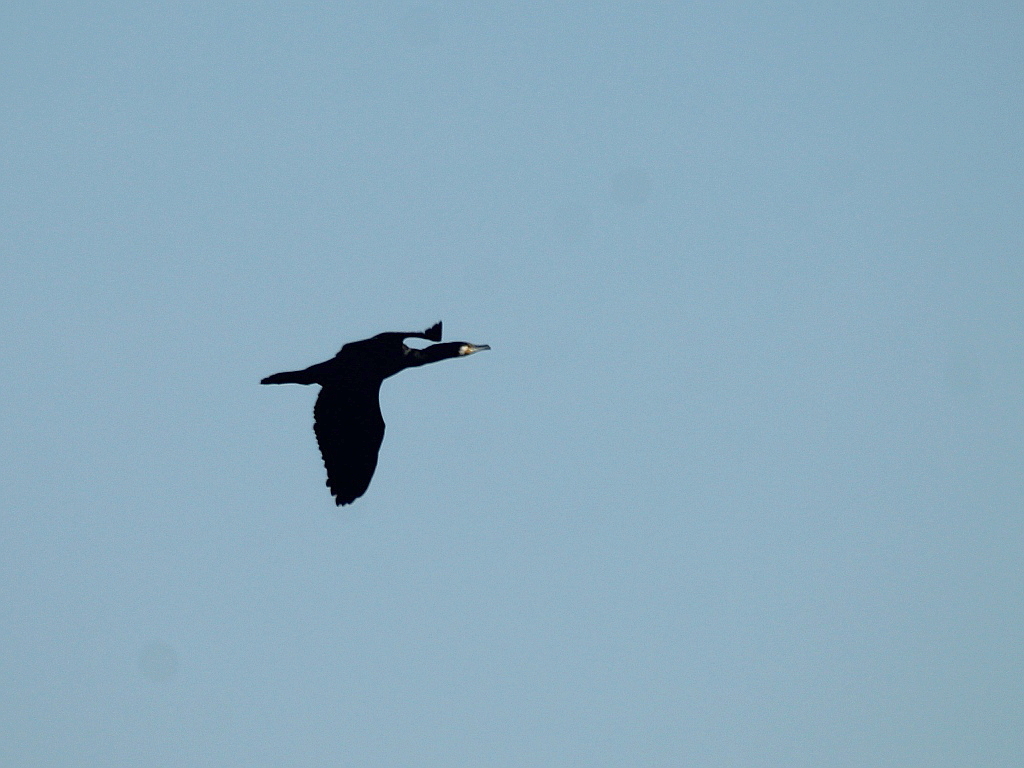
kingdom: Animalia
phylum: Chordata
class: Aves
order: Suliformes
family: Phalacrocoracidae
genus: Phalacrocorax
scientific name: Phalacrocorax carbo
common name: Great cormorant
